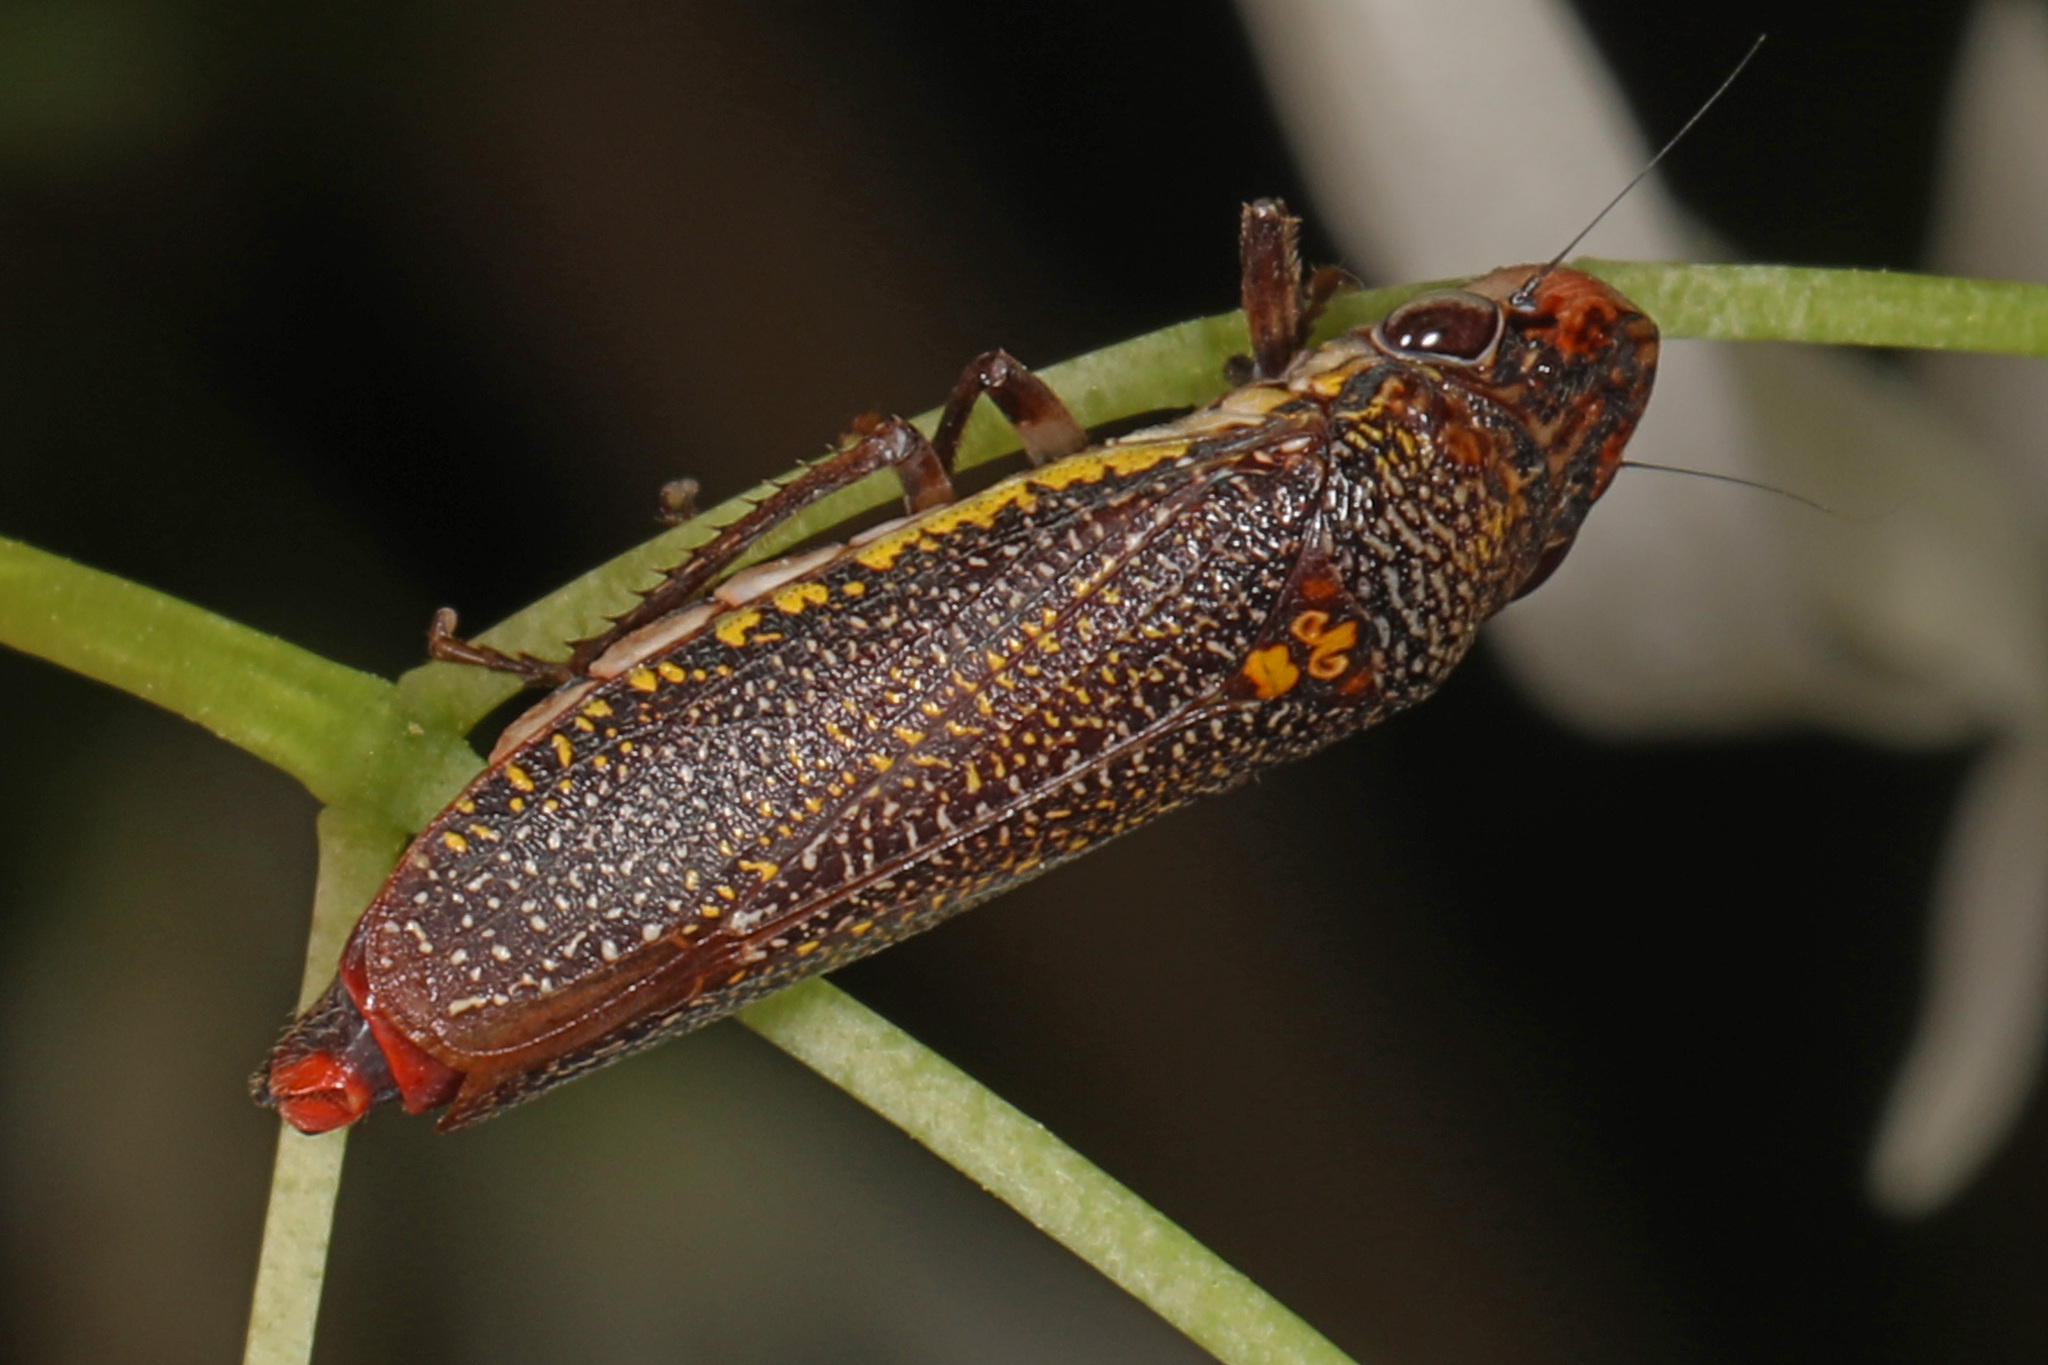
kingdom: Animalia
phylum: Arthropoda
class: Insecta
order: Hemiptera
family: Cicadellidae
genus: Paraulacizes
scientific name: Paraulacizes irrorata
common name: Speckled sharpshooter
